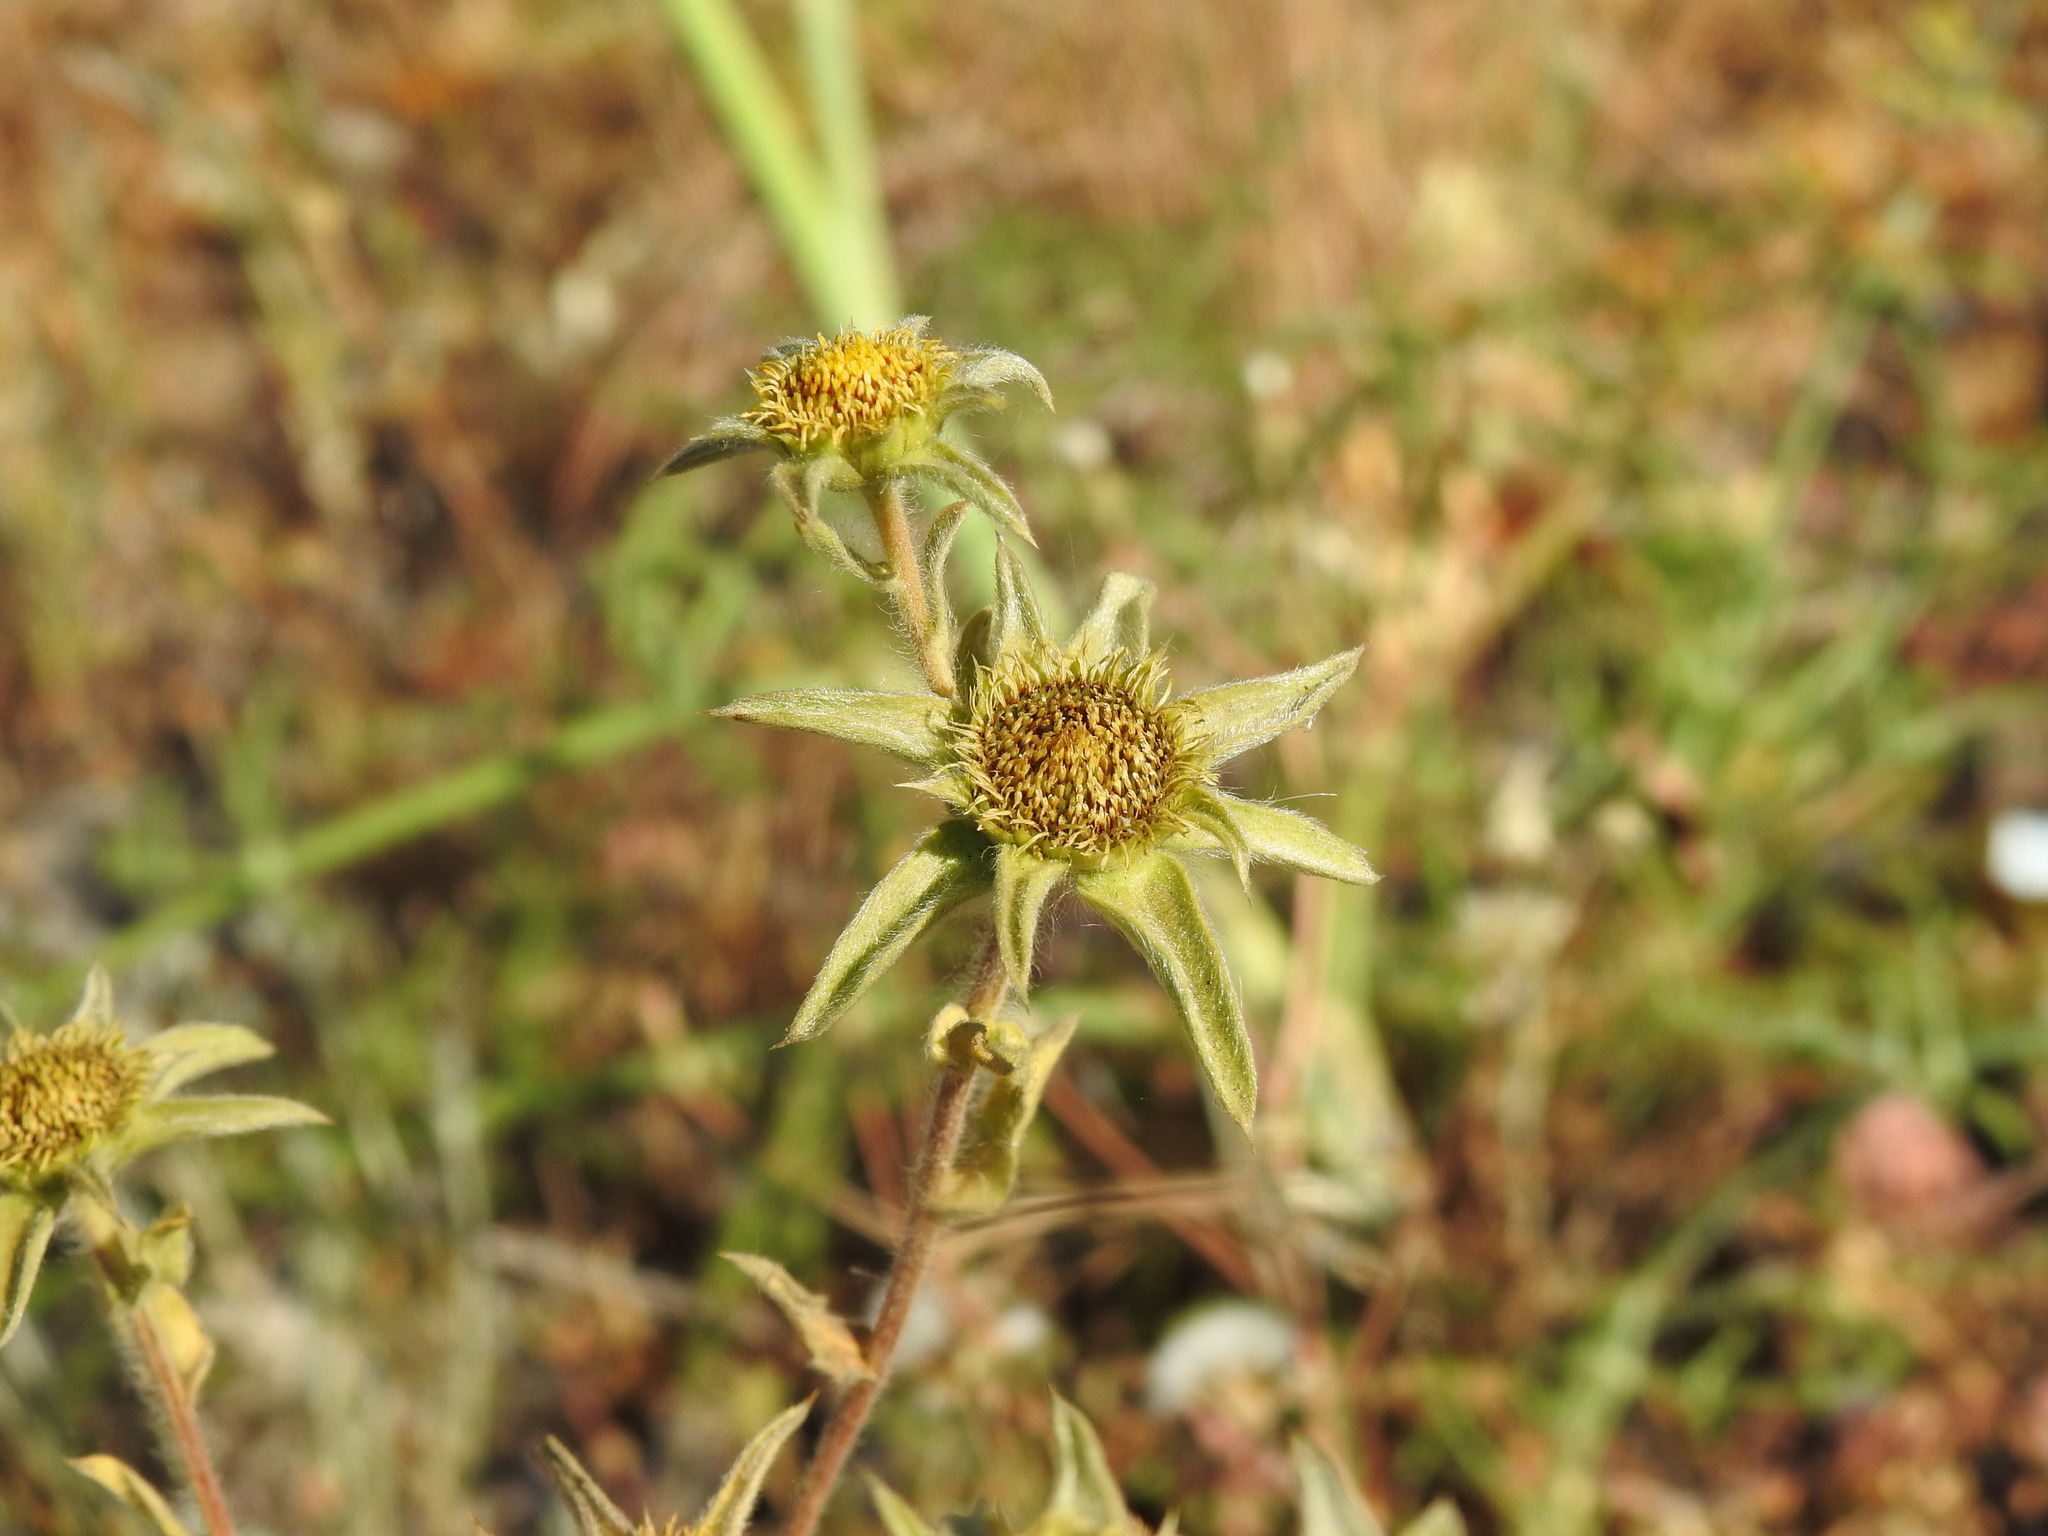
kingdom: Plantae
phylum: Tracheophyta
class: Magnoliopsida
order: Asterales
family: Asteraceae
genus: Pallenis
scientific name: Pallenis spinosa
